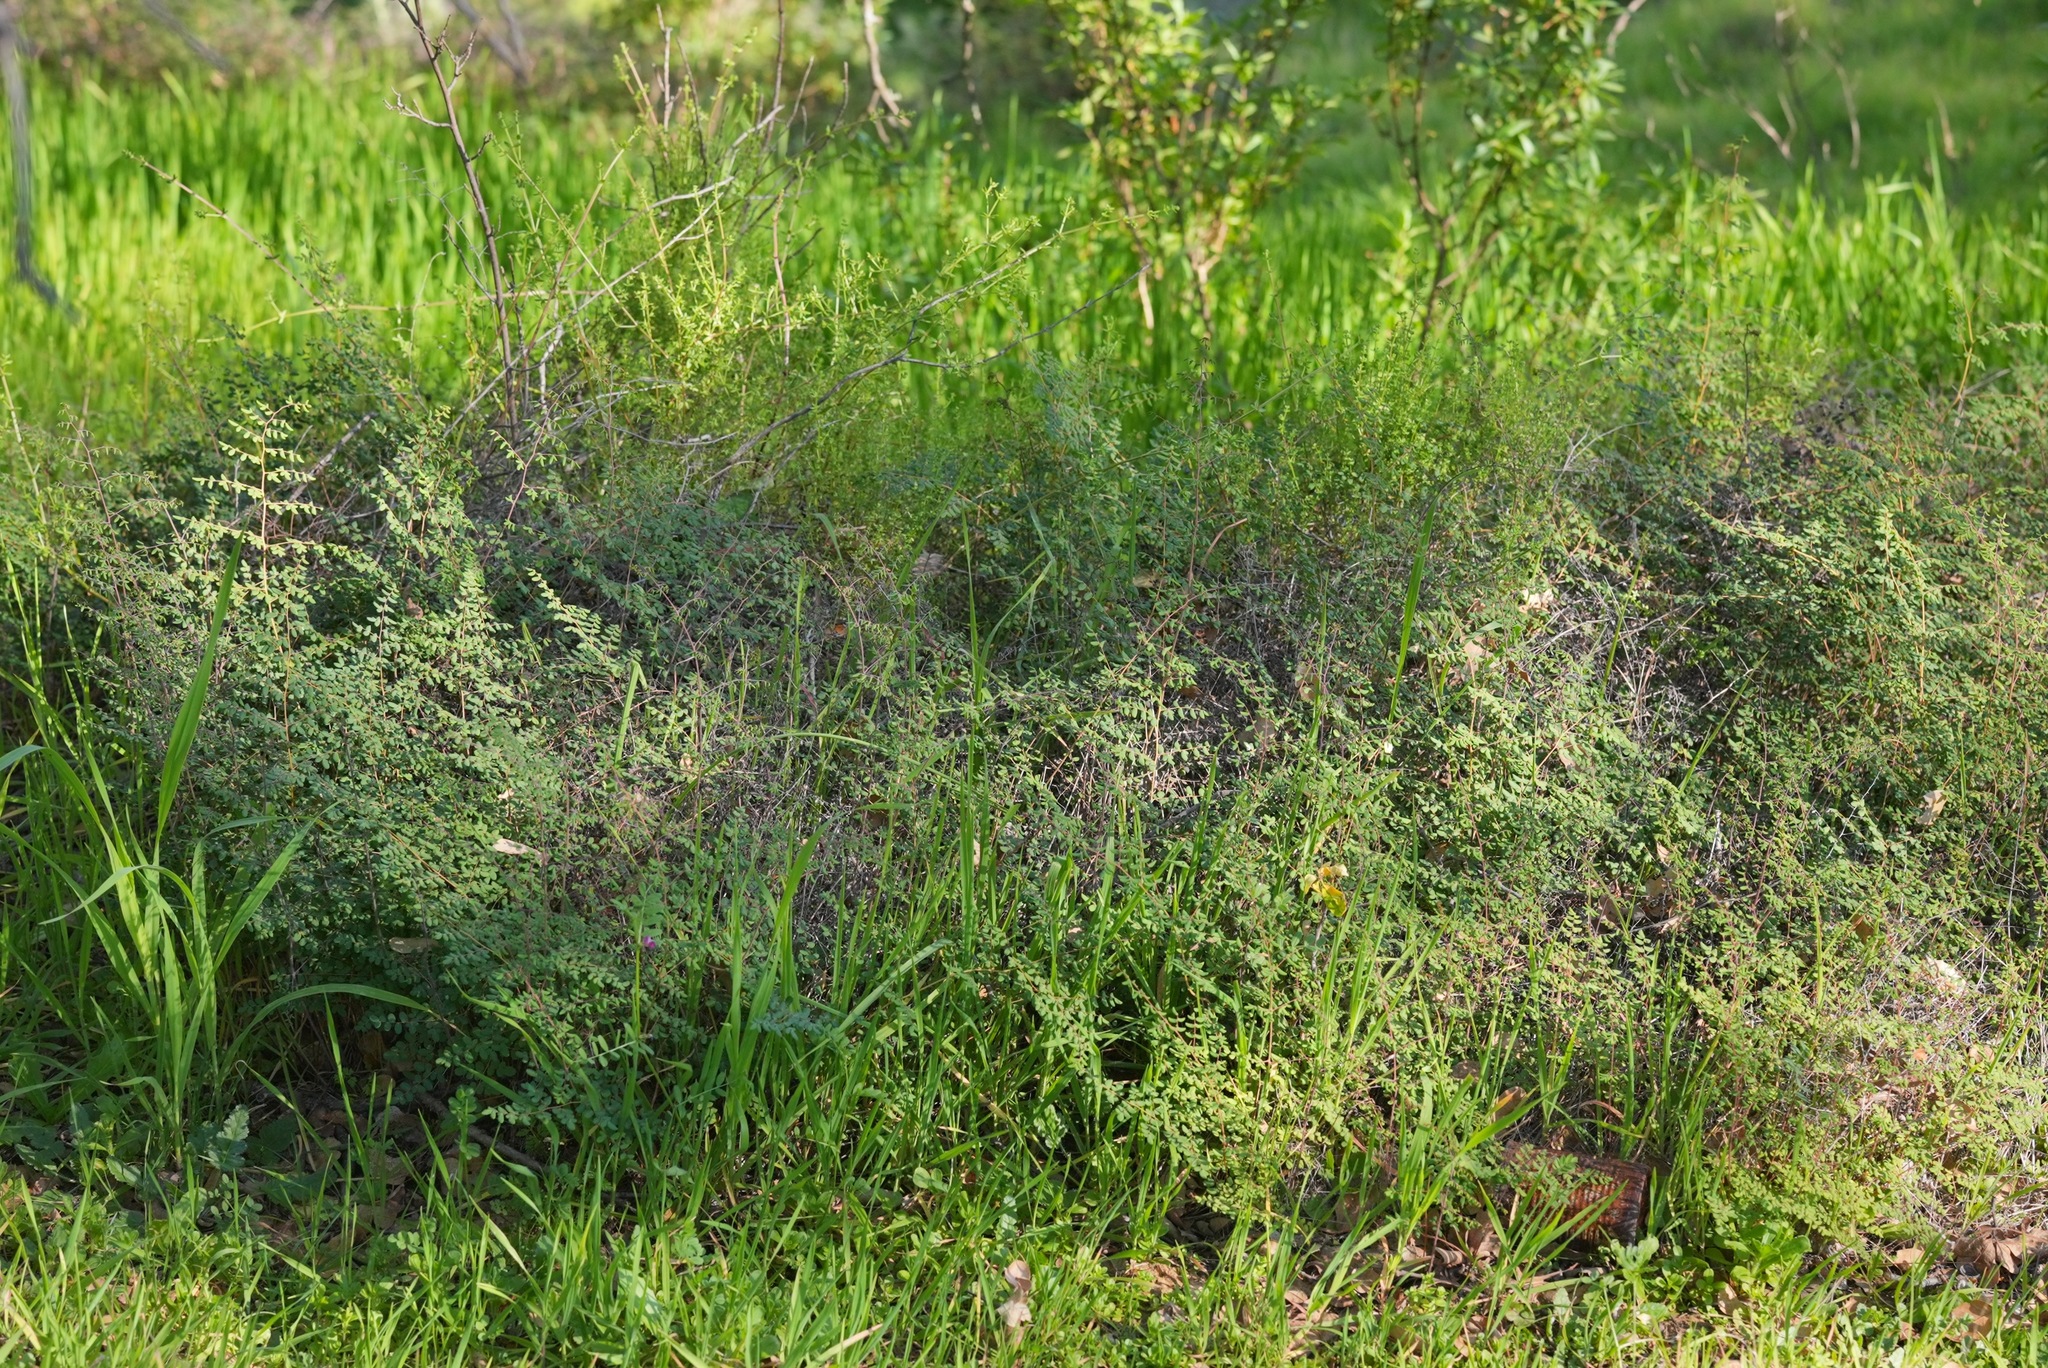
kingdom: Plantae
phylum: Tracheophyta
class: Polypodiopsida
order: Polypodiales
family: Pteridaceae
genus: Pellaea
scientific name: Pellaea andromedifolia
